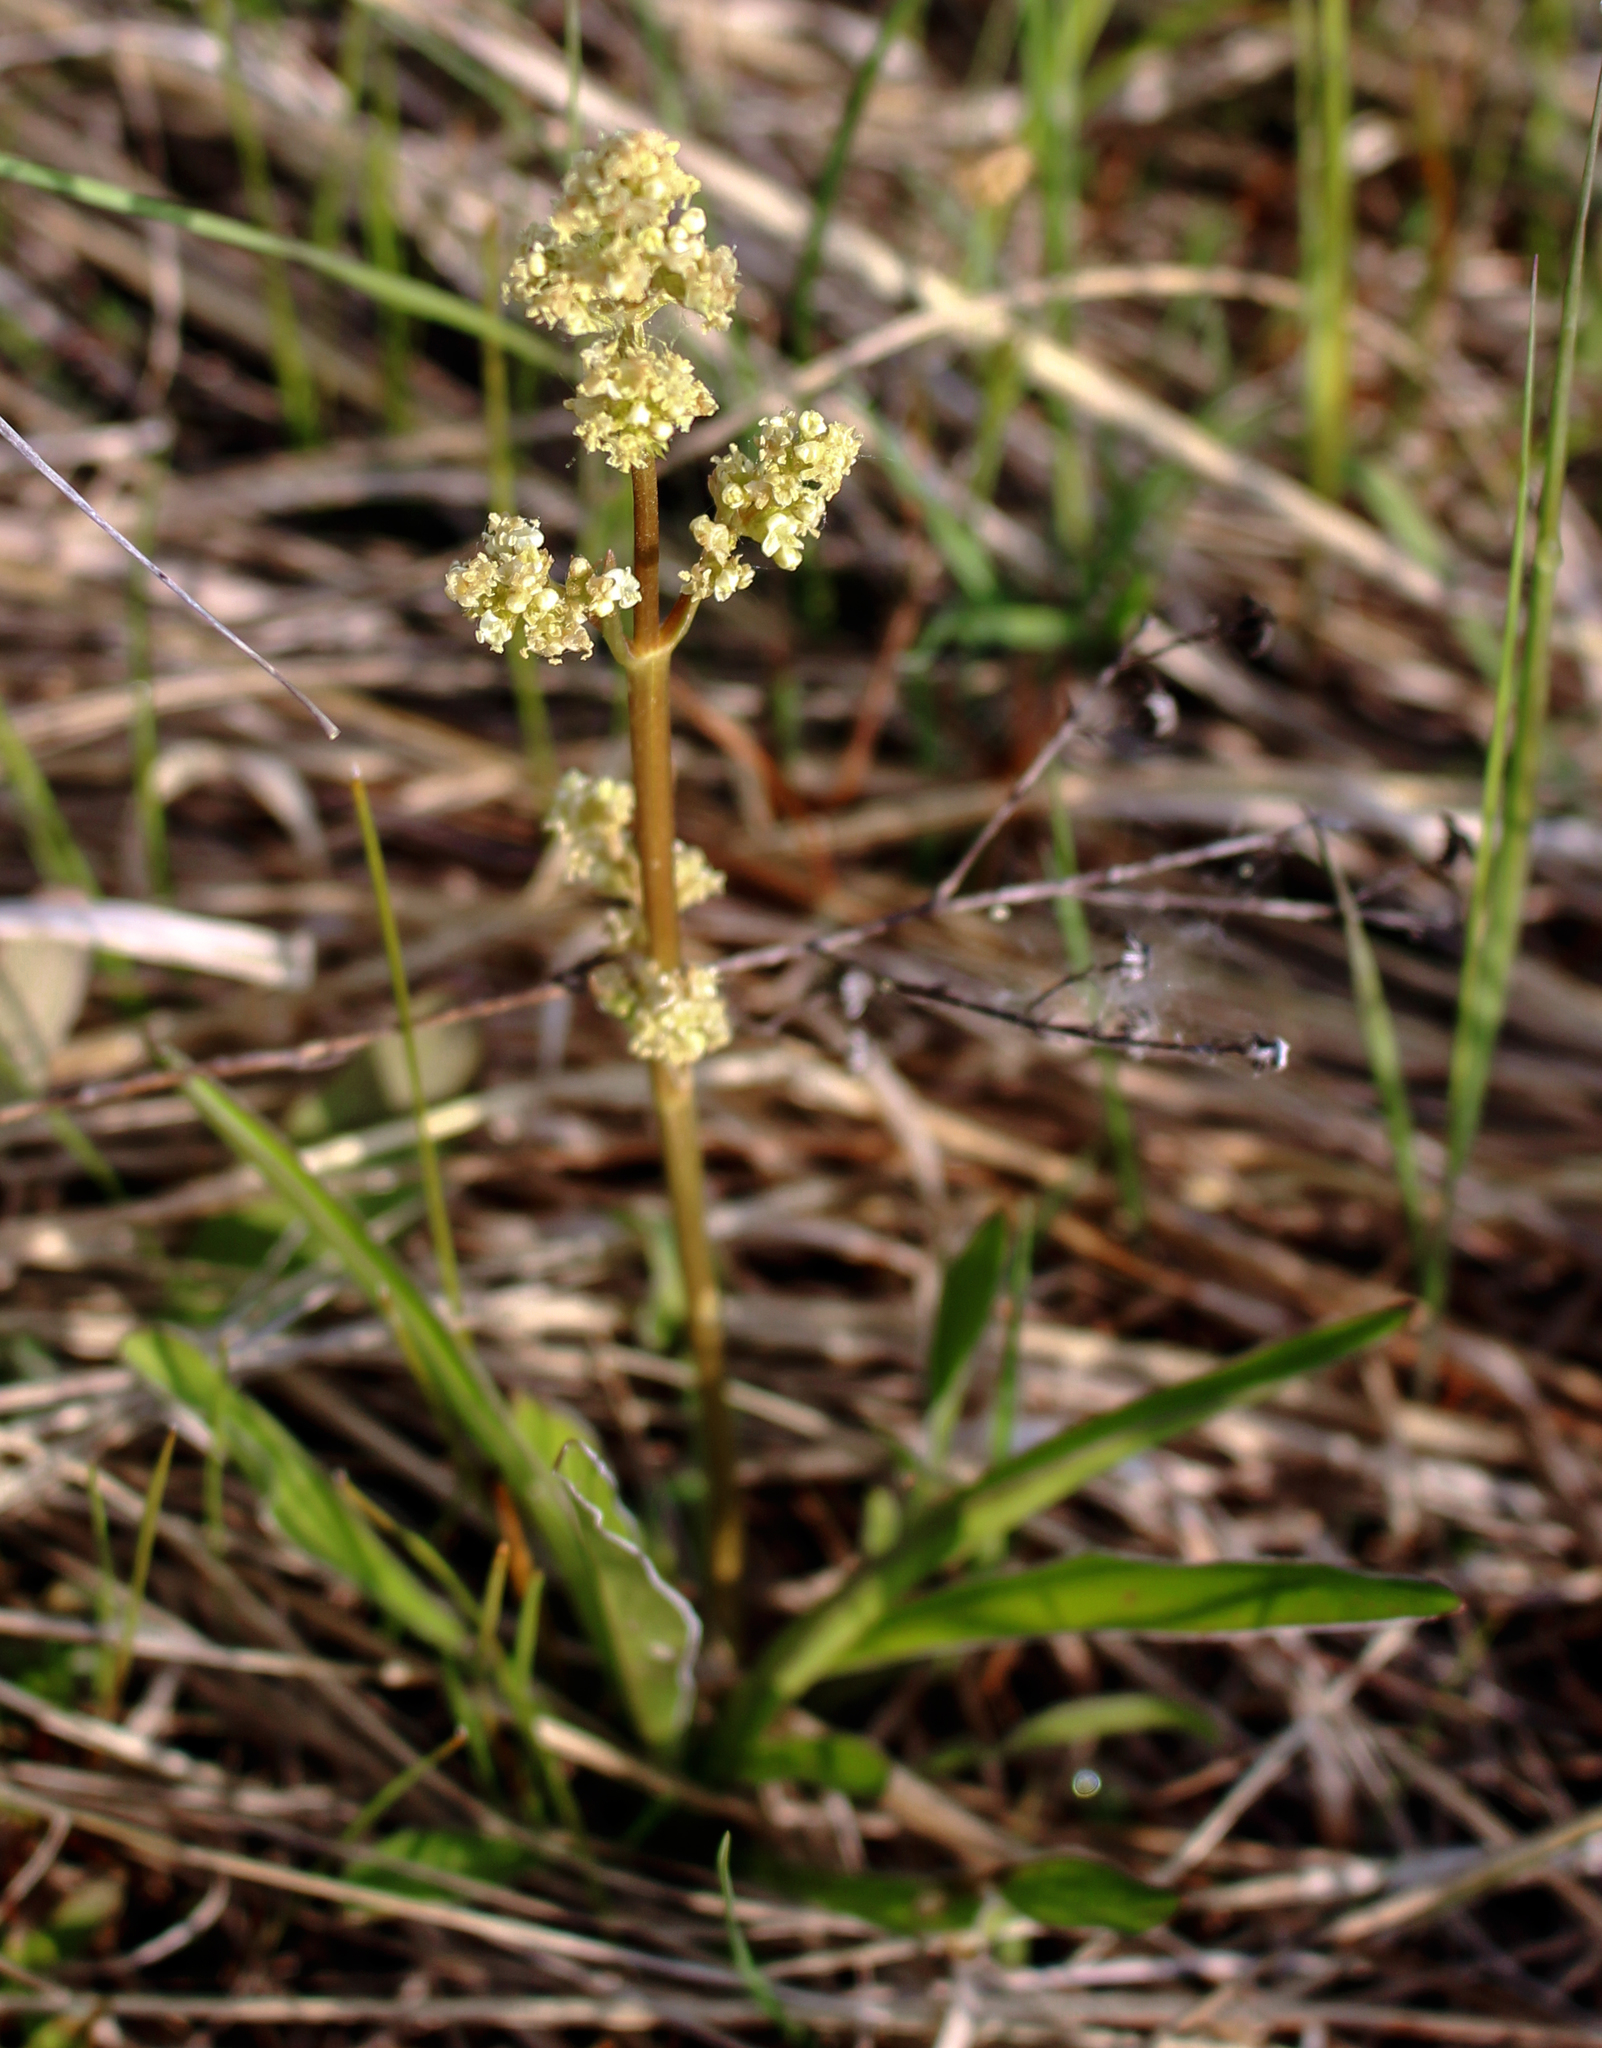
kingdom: Plantae
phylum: Tracheophyta
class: Magnoliopsida
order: Dipsacales
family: Caprifoliaceae
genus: Valeriana
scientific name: Valeriana edulis
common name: Taproot valerian
